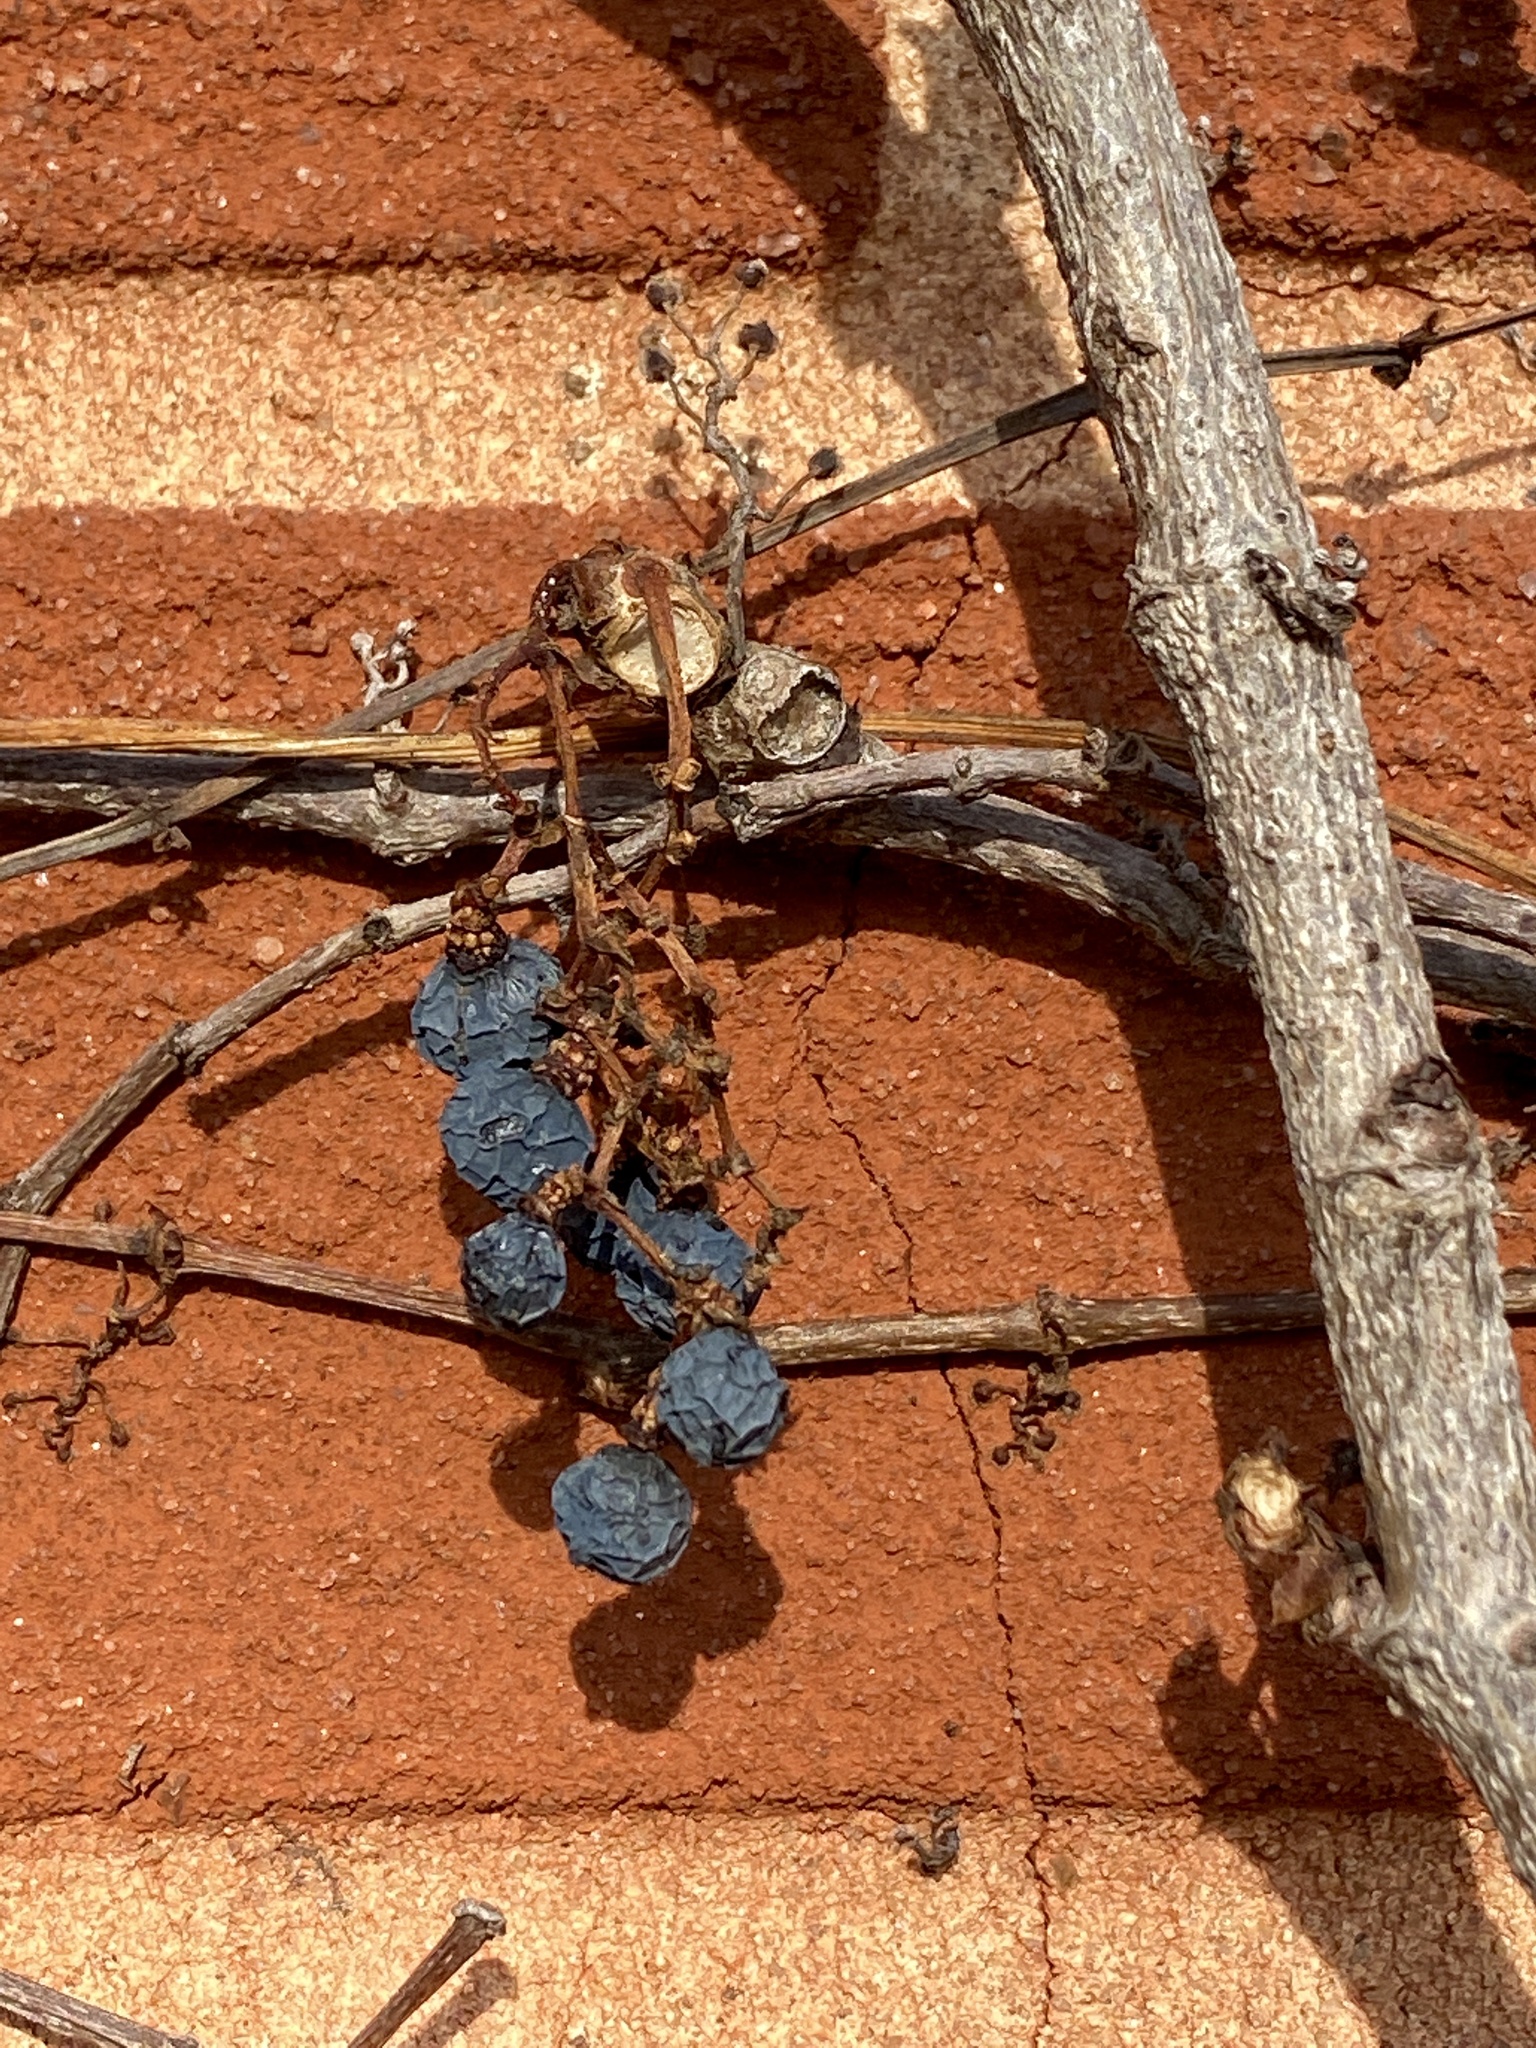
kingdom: Plantae
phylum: Tracheophyta
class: Magnoliopsida
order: Vitales
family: Vitaceae
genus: Parthenocissus
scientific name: Parthenocissus tricuspidata
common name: Boston ivy
